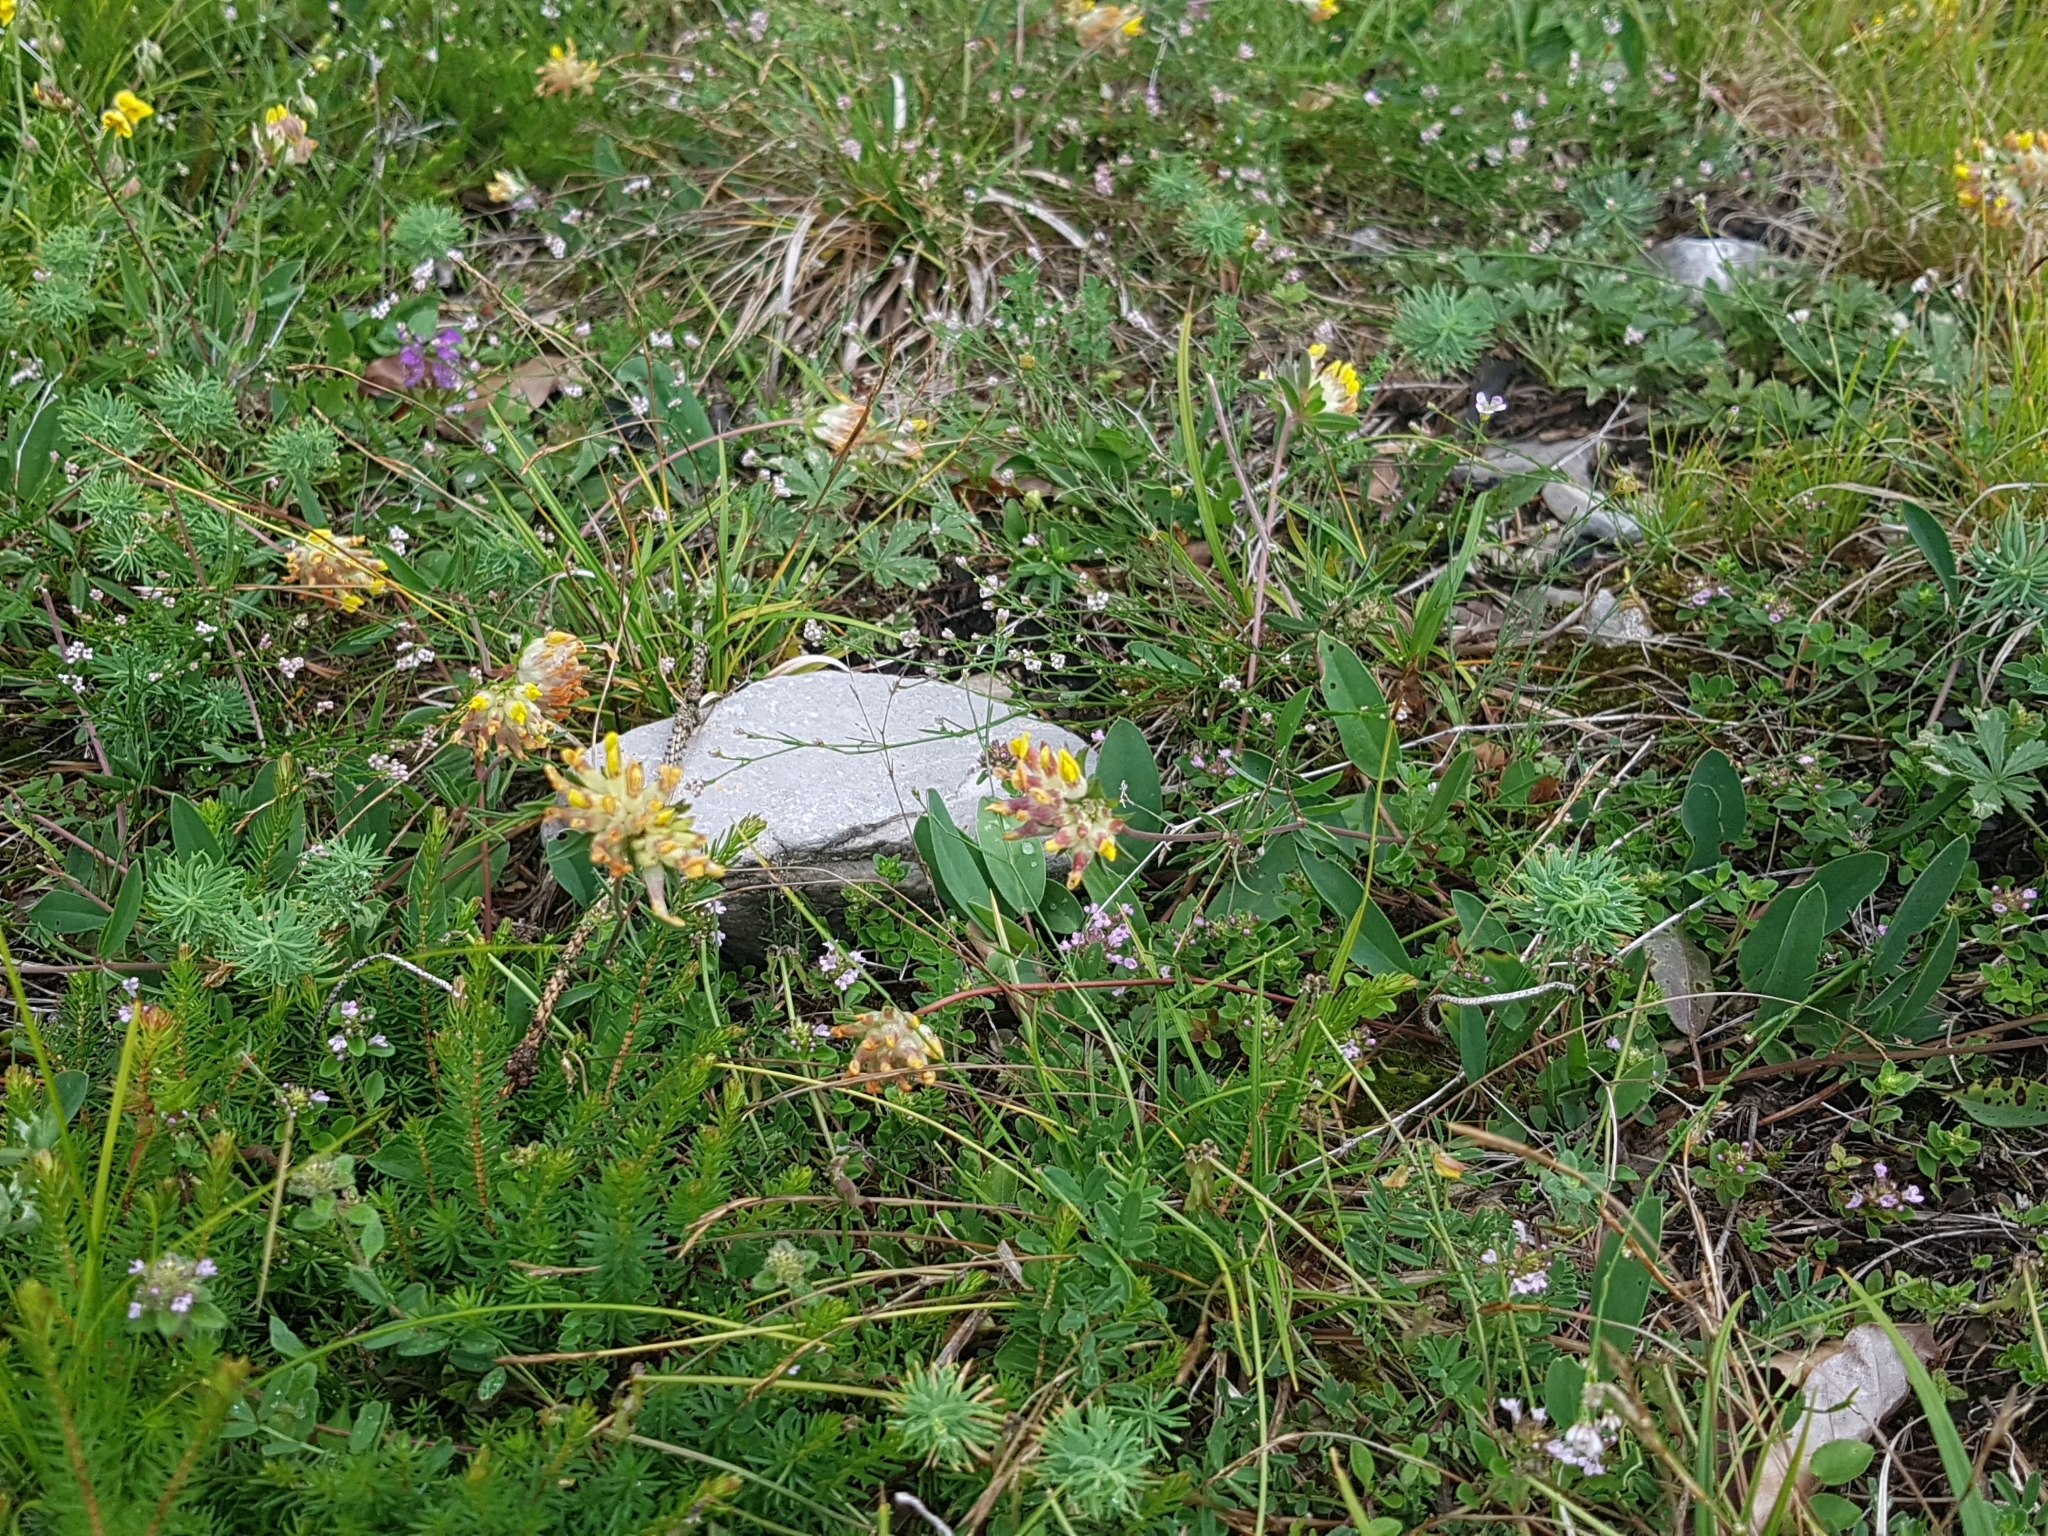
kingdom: Plantae
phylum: Tracheophyta
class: Magnoliopsida
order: Fabales
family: Fabaceae
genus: Anthyllis
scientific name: Anthyllis vulneraria
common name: Kidney vetch
